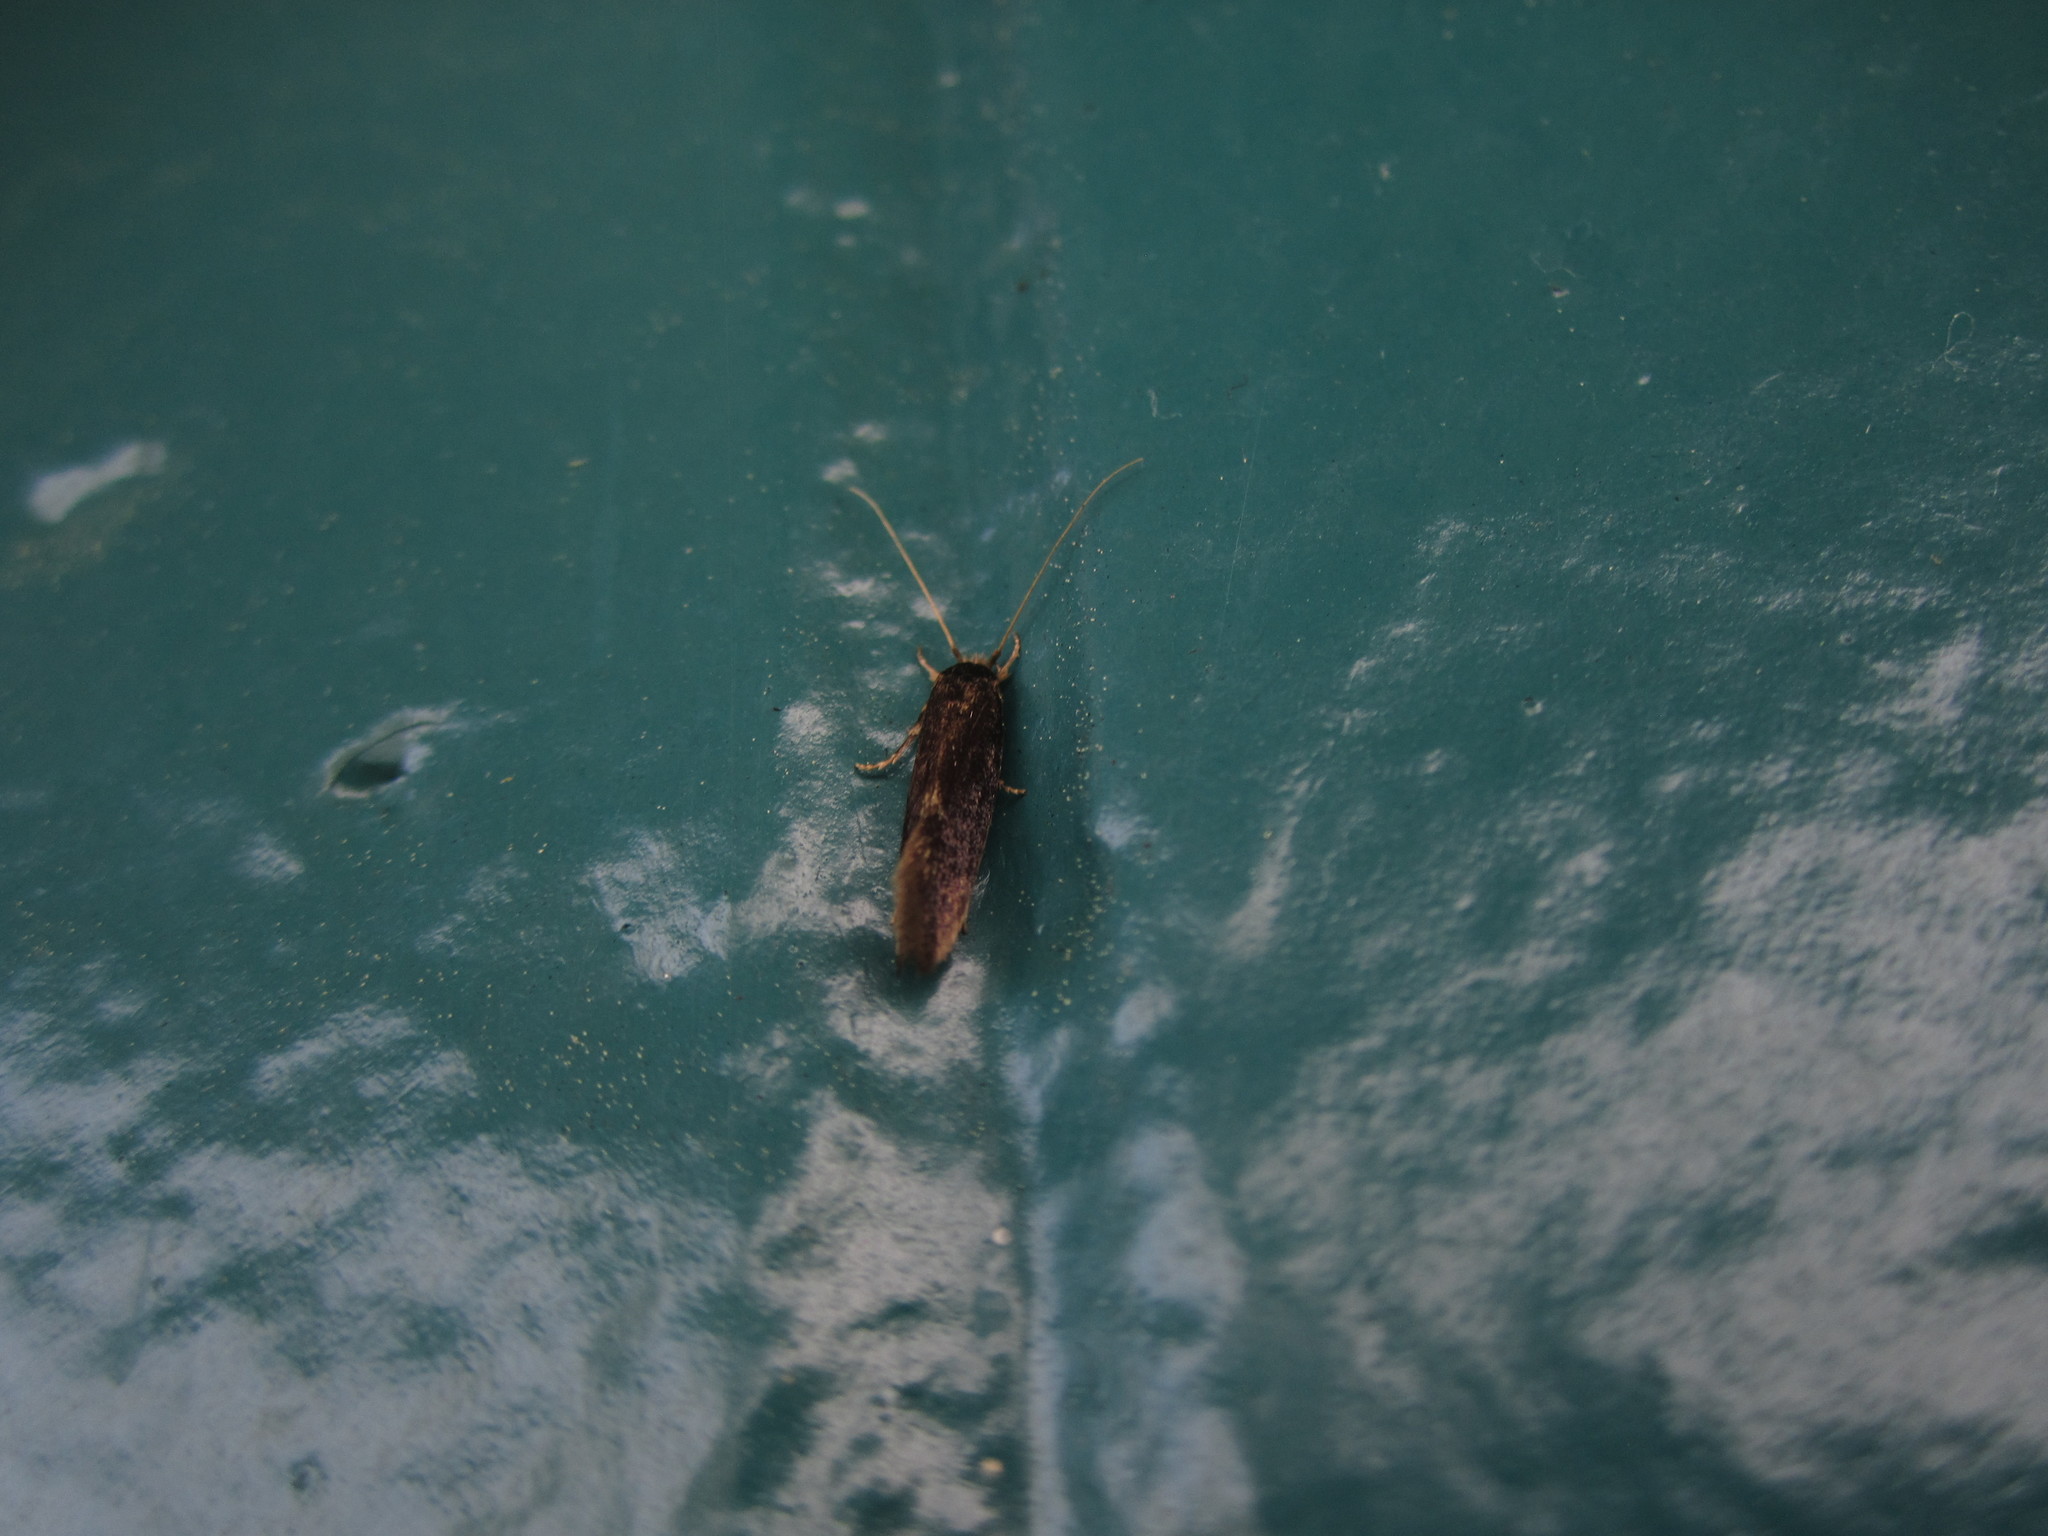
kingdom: Animalia
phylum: Arthropoda
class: Insecta
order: Lepidoptera
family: Tineidae
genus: Opogona
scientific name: Opogona omoscopa
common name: Moth
